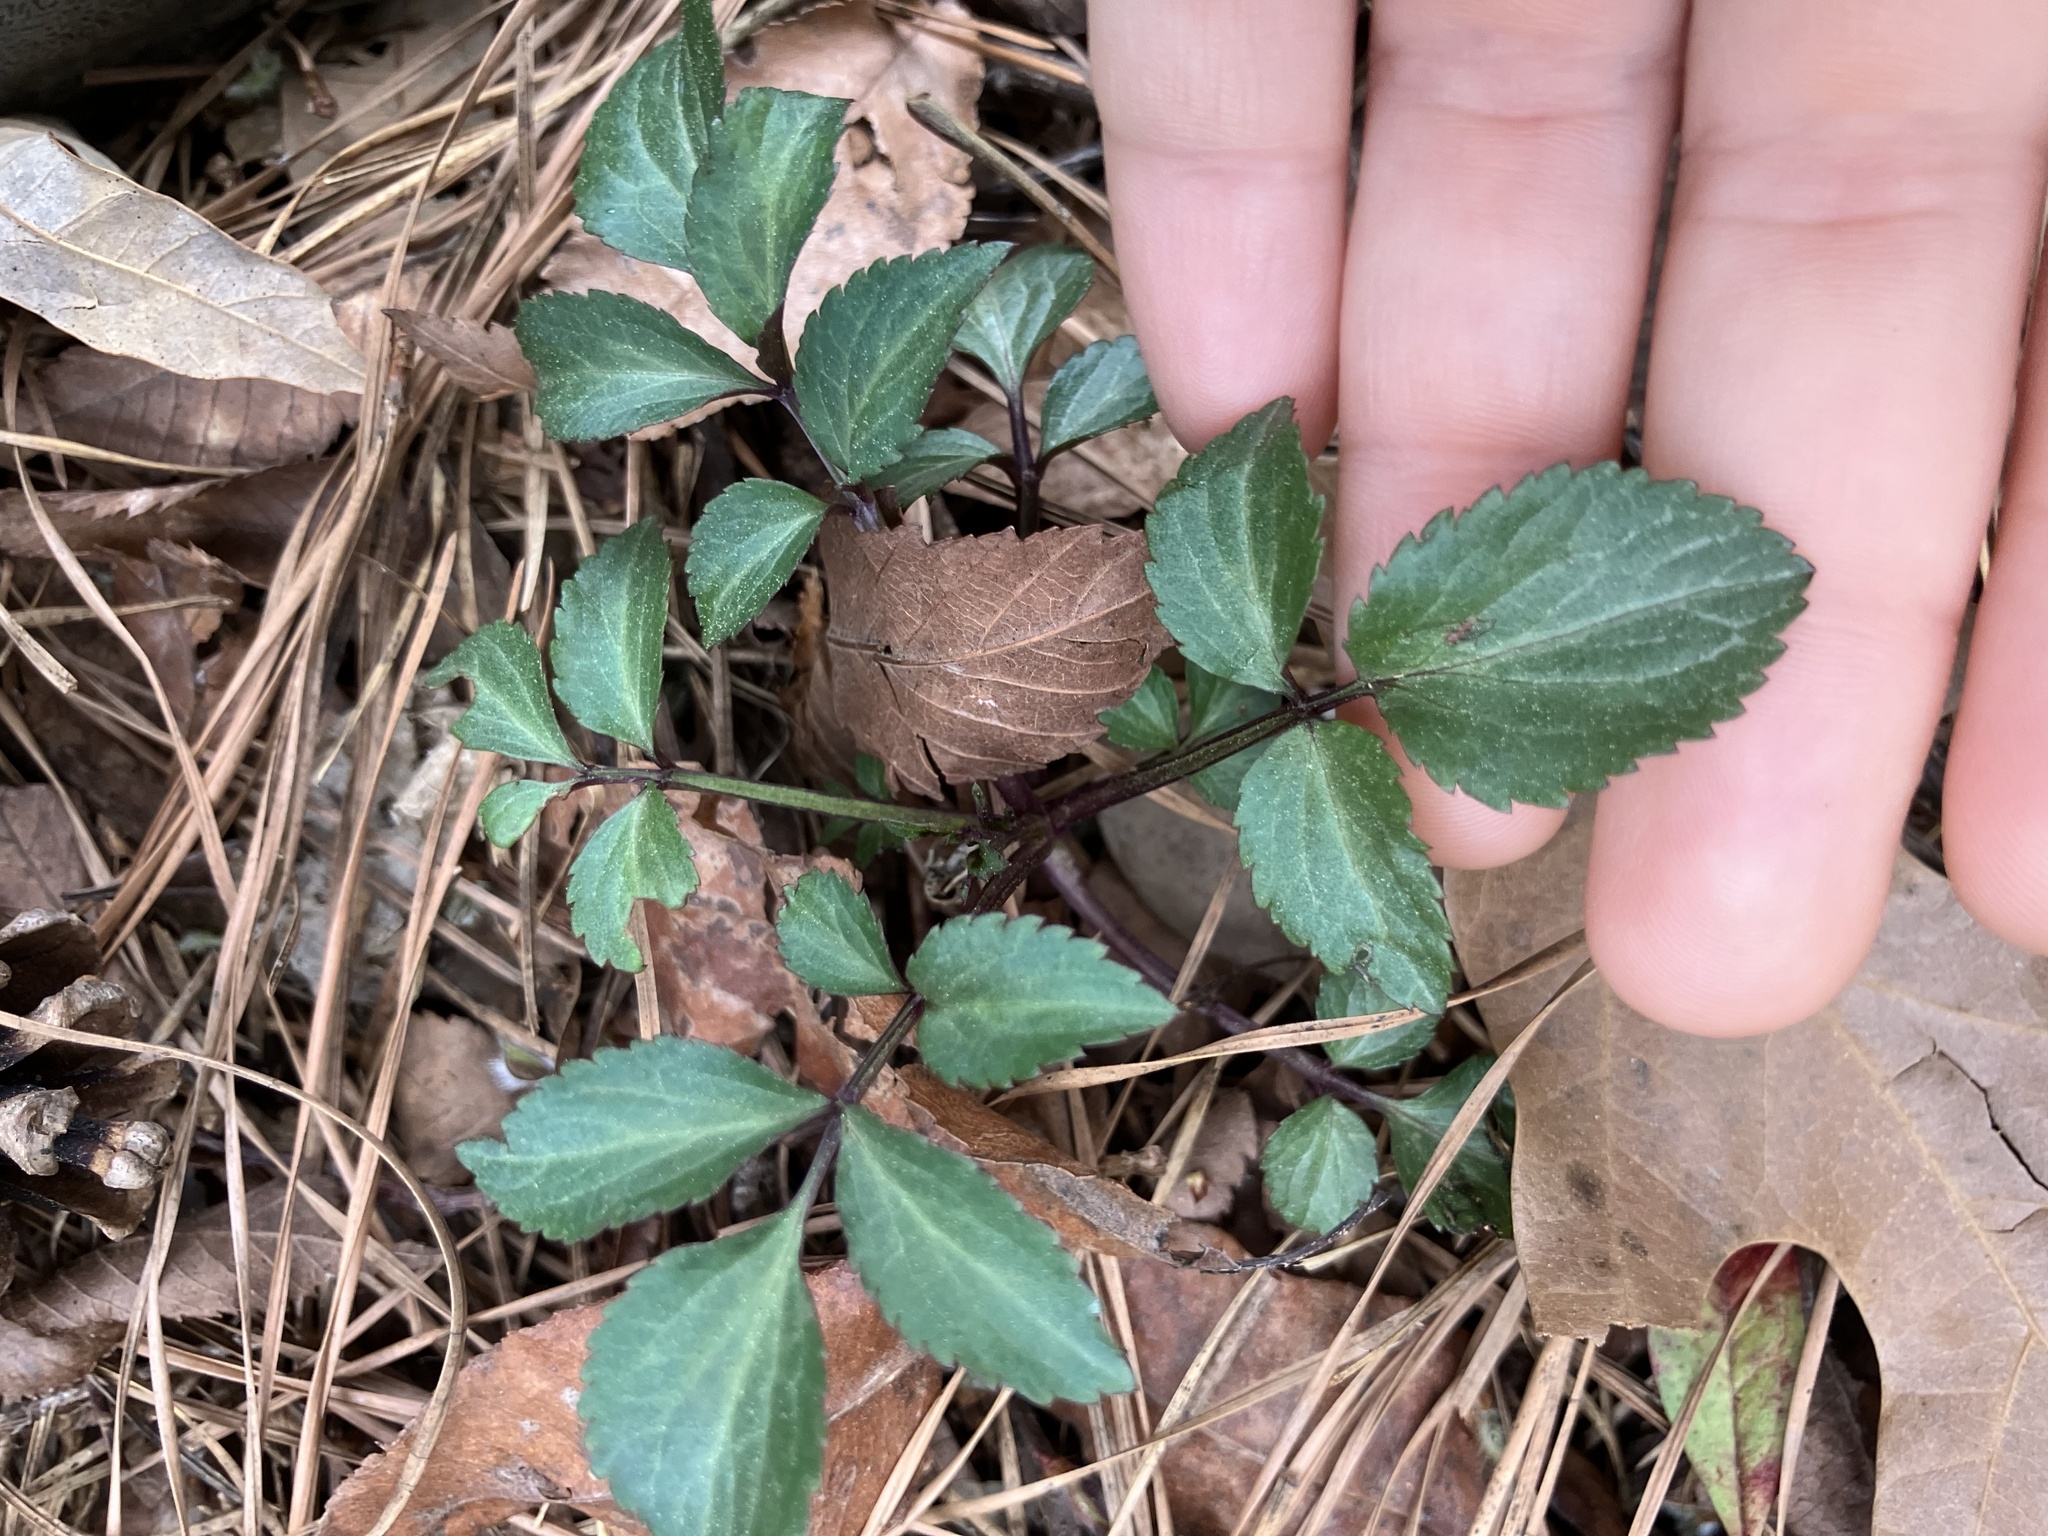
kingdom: Plantae
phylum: Tracheophyta
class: Magnoliopsida
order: Dipsacales
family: Viburnaceae
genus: Sambucus
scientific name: Sambucus canadensis
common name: American elder
